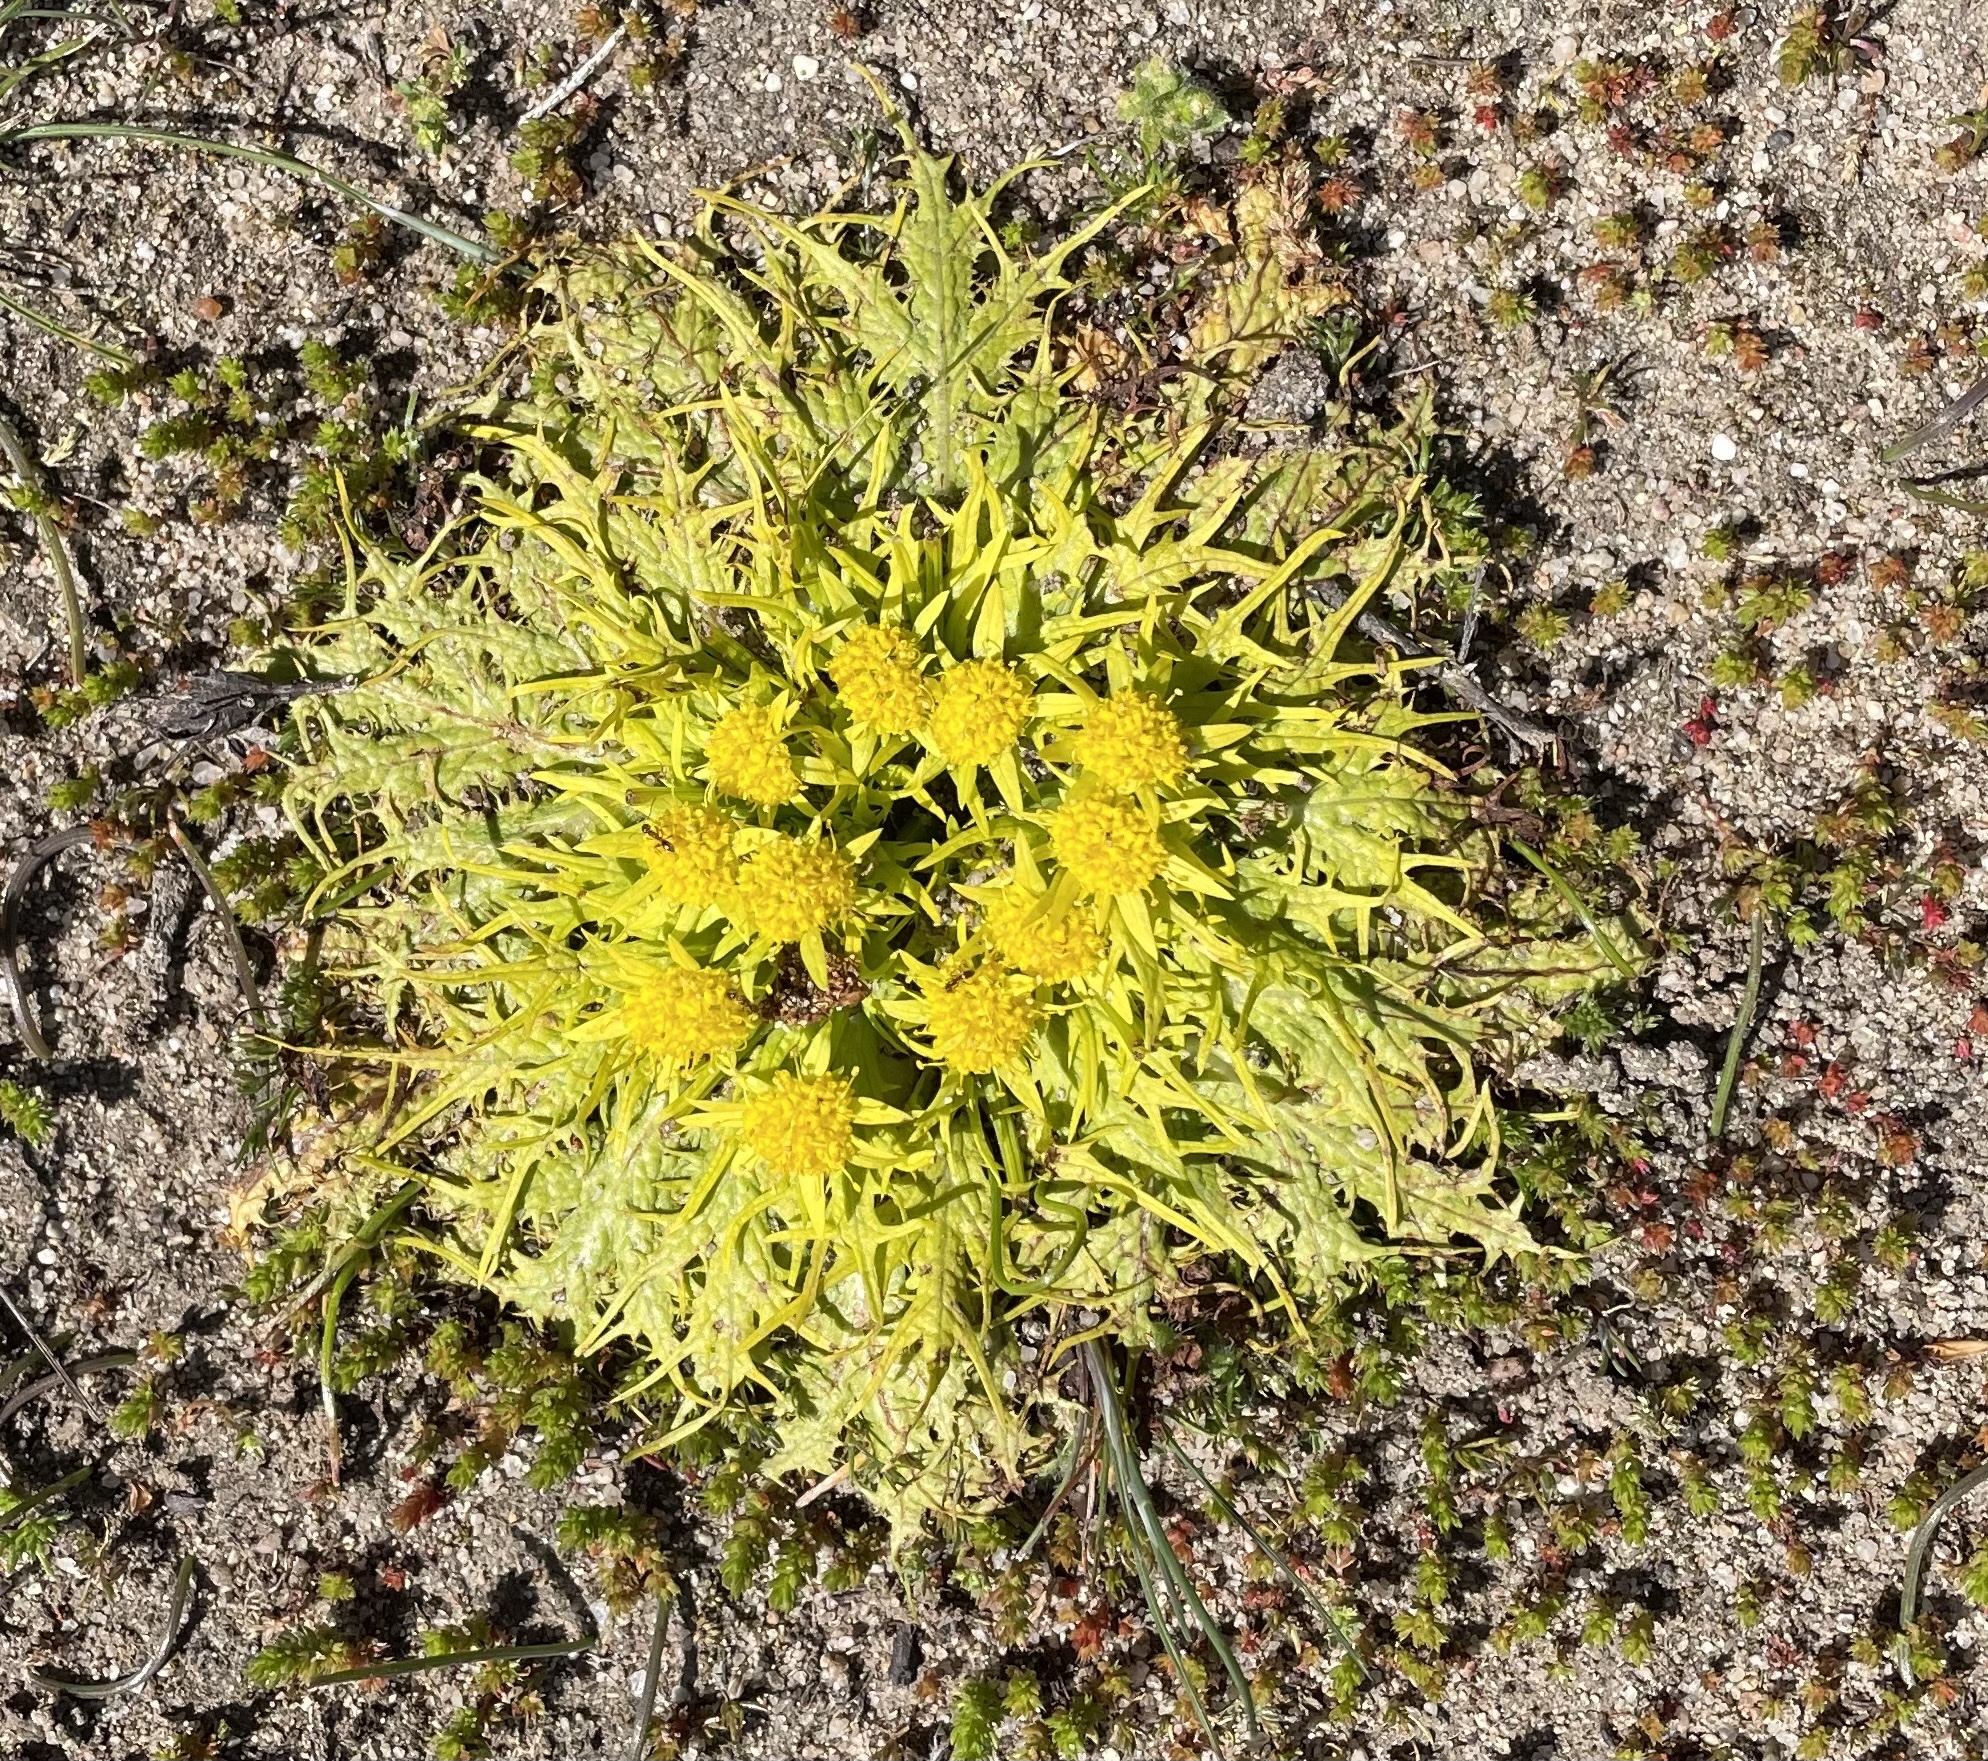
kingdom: Plantae
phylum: Tracheophyta
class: Magnoliopsida
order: Apiales
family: Apiaceae
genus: Sanicula
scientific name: Sanicula arctopoides
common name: Footsteps-of-spring
